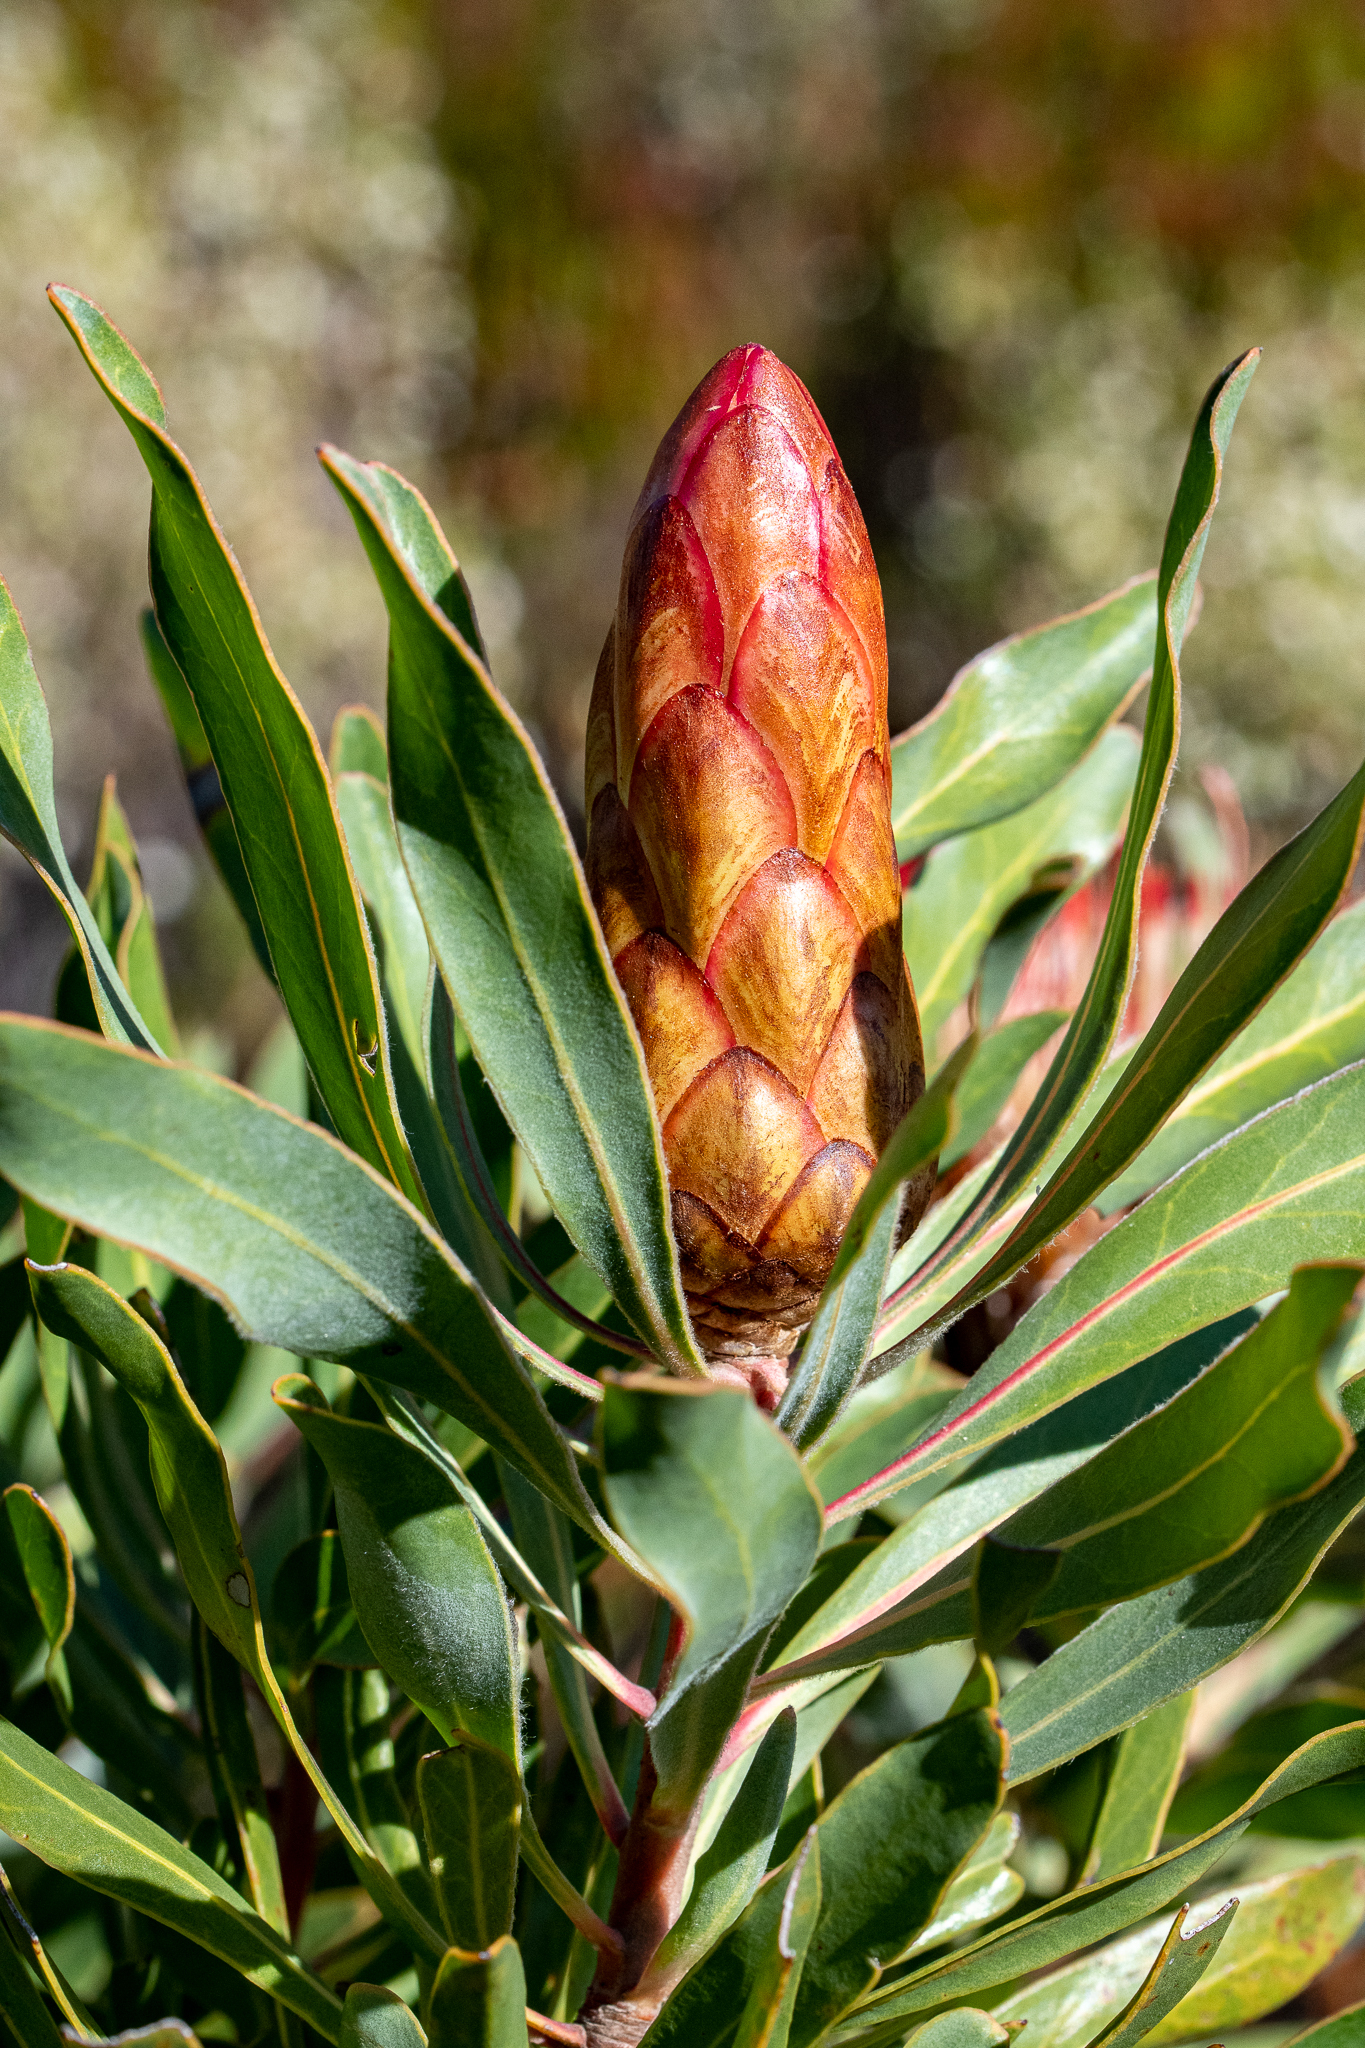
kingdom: Plantae
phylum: Tracheophyta
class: Magnoliopsida
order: Proteales
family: Proteaceae
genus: Protea
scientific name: Protea susannae
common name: Foetid-leaf sugarbush
